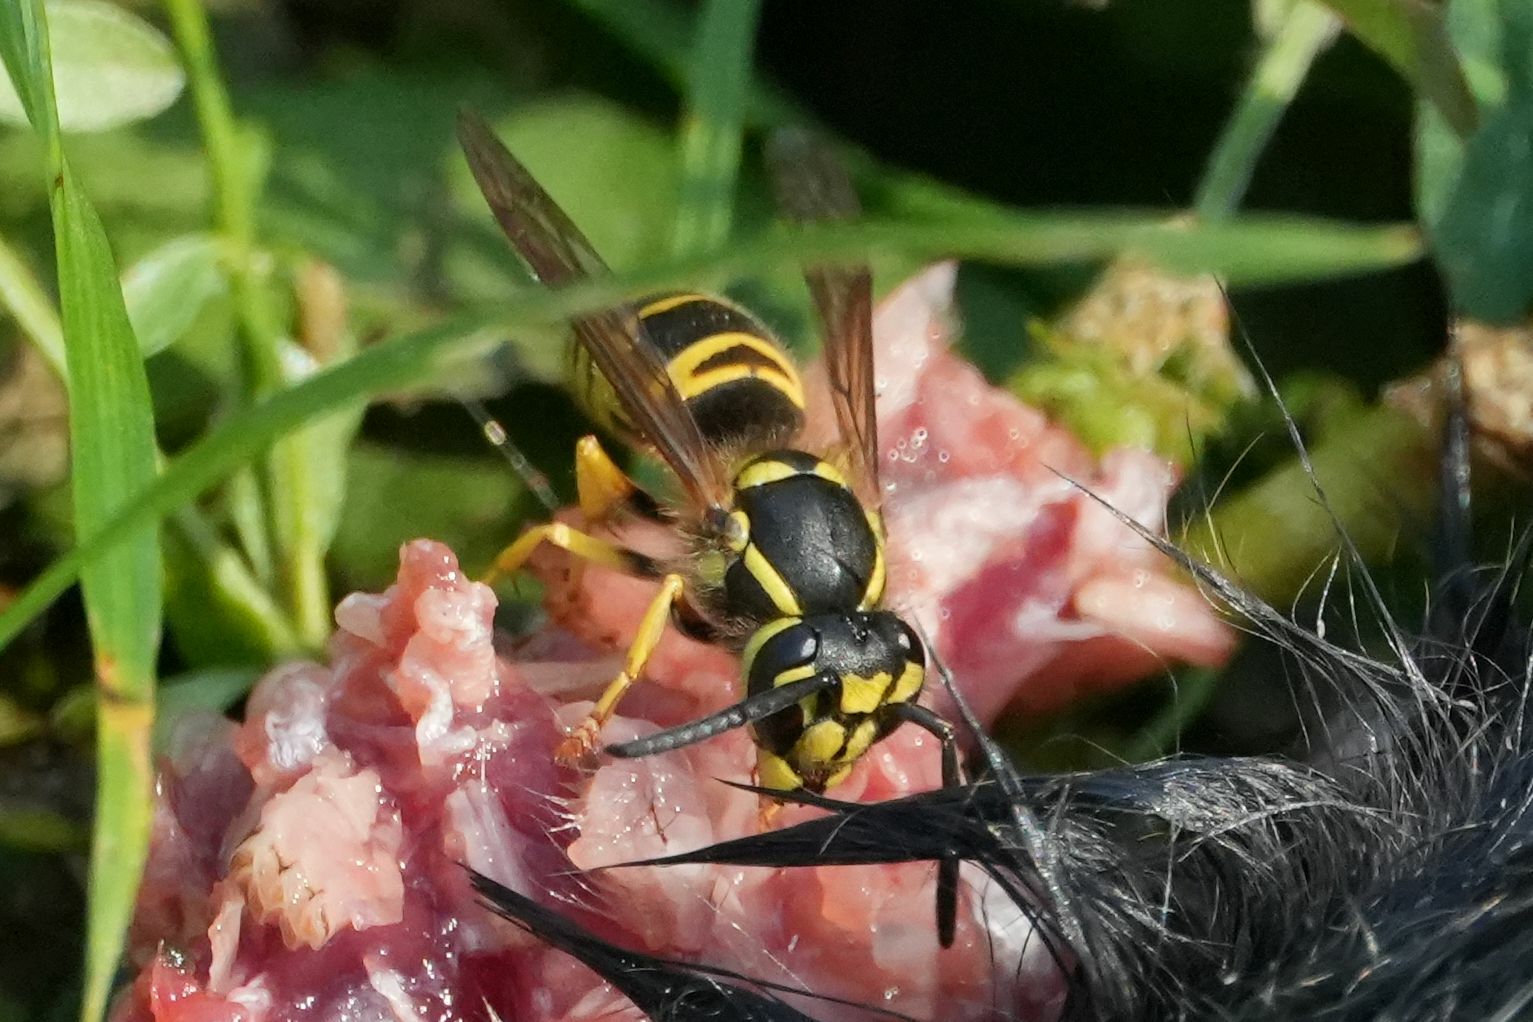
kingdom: Animalia
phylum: Arthropoda
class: Insecta
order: Hymenoptera
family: Vespidae
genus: Vespula
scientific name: Vespula maculifrons
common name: Eastern yellowjacket
